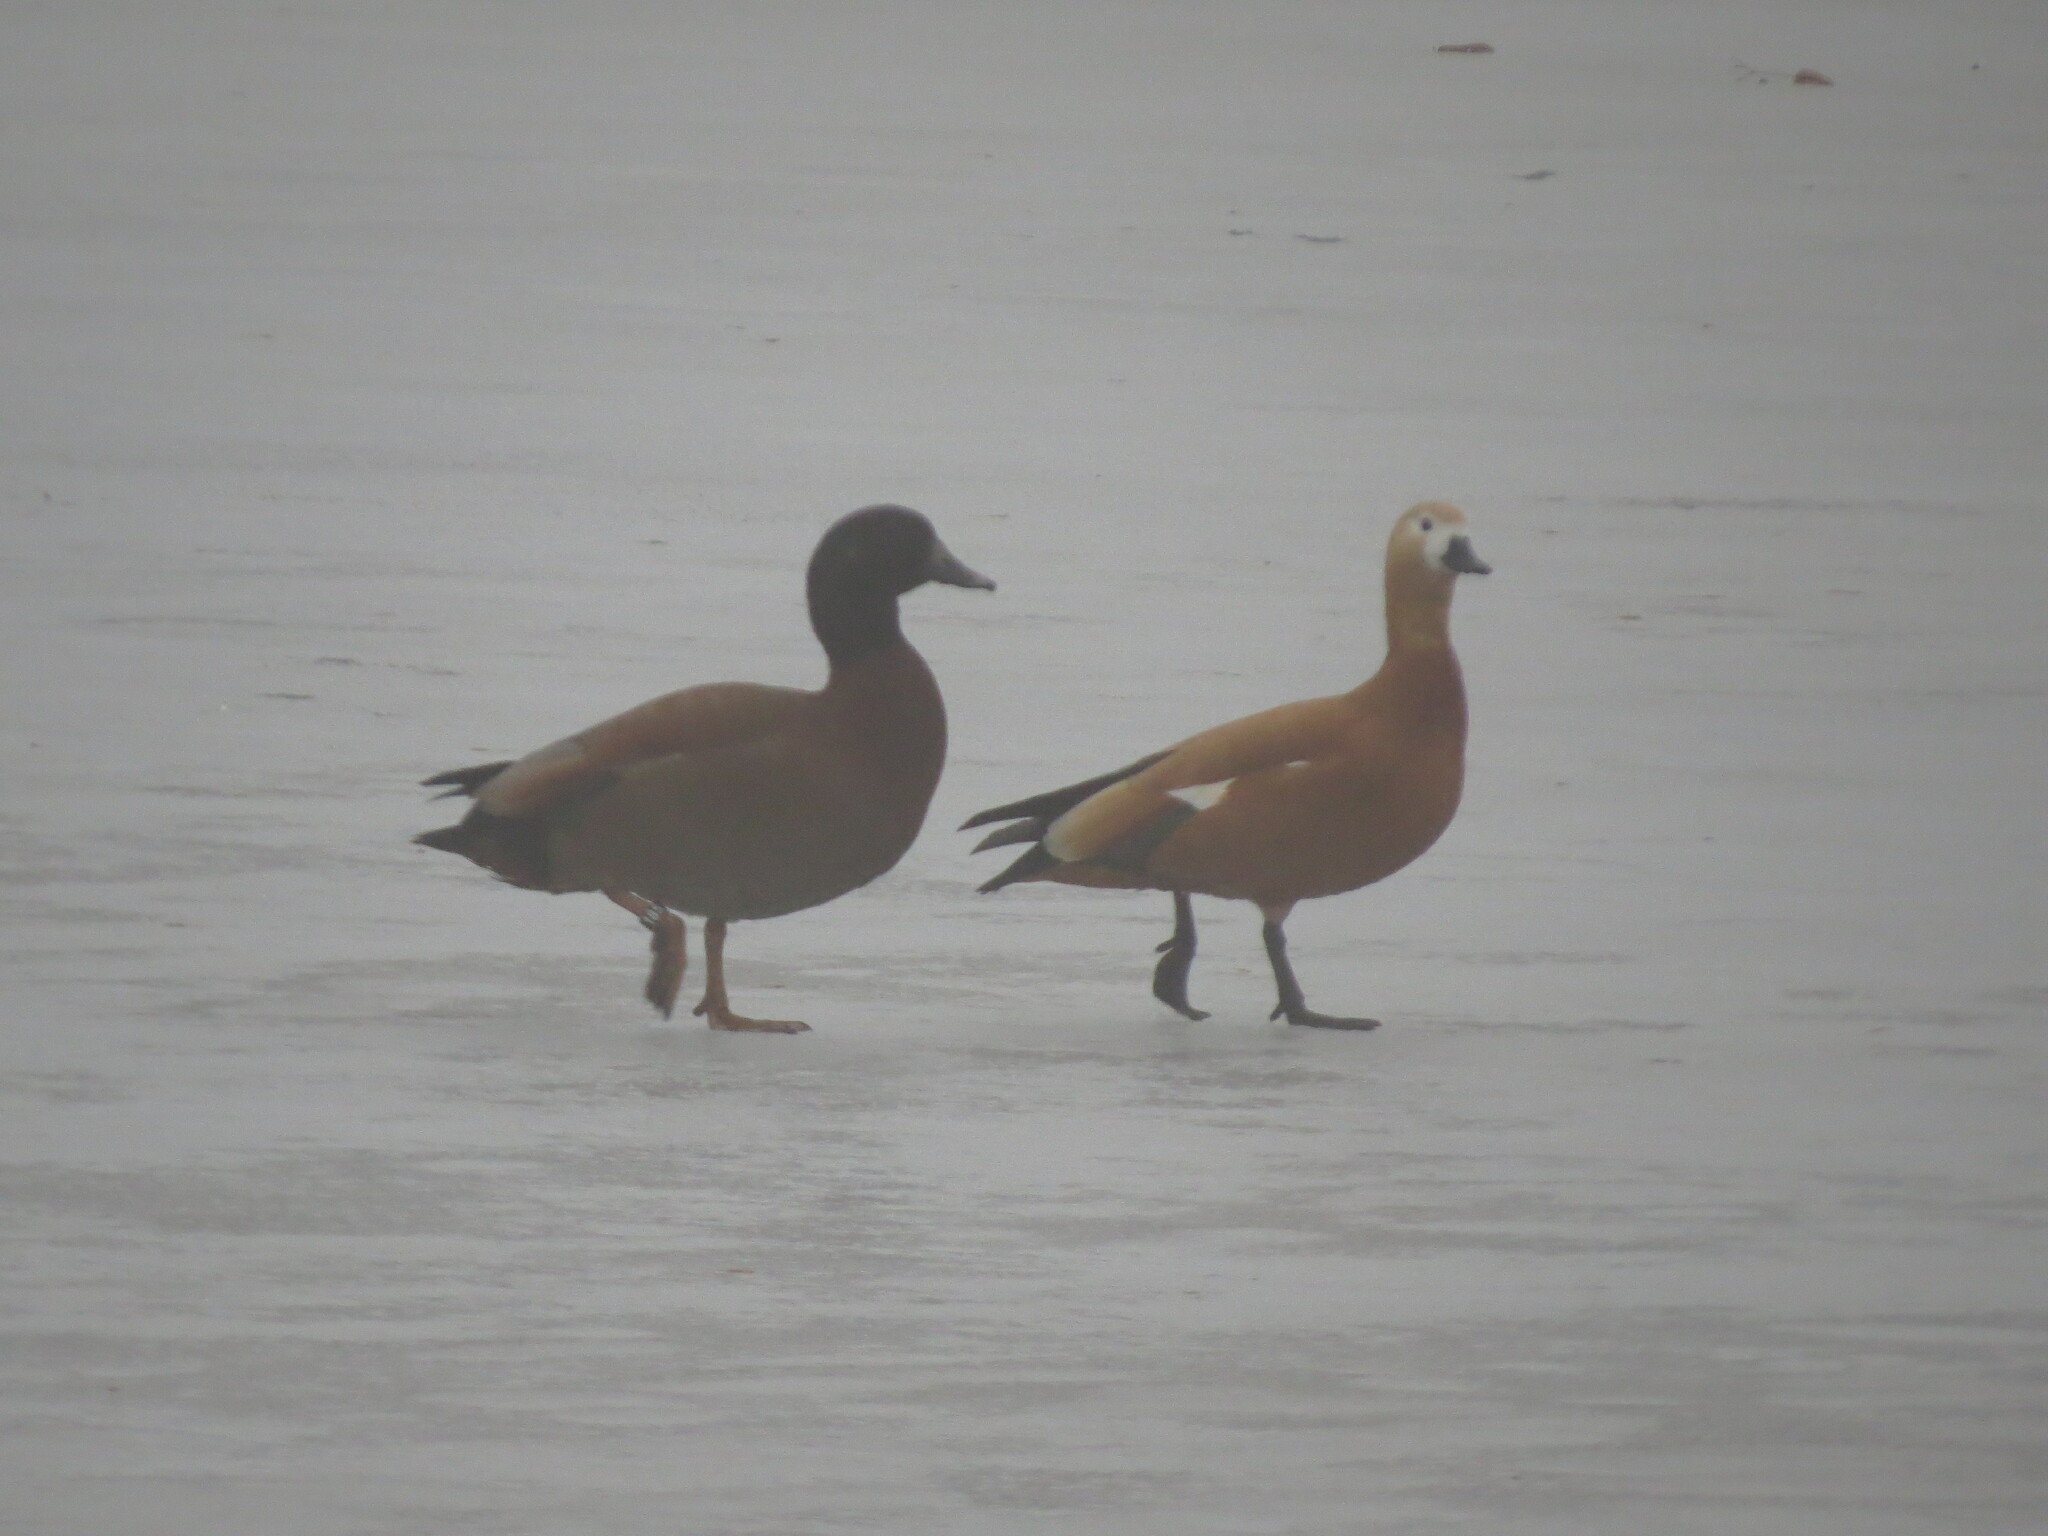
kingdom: Animalia
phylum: Chordata
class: Aves
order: Anseriformes
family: Anatidae
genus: Tadorna
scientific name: Tadorna ferruginea
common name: Ruddy shelduck
